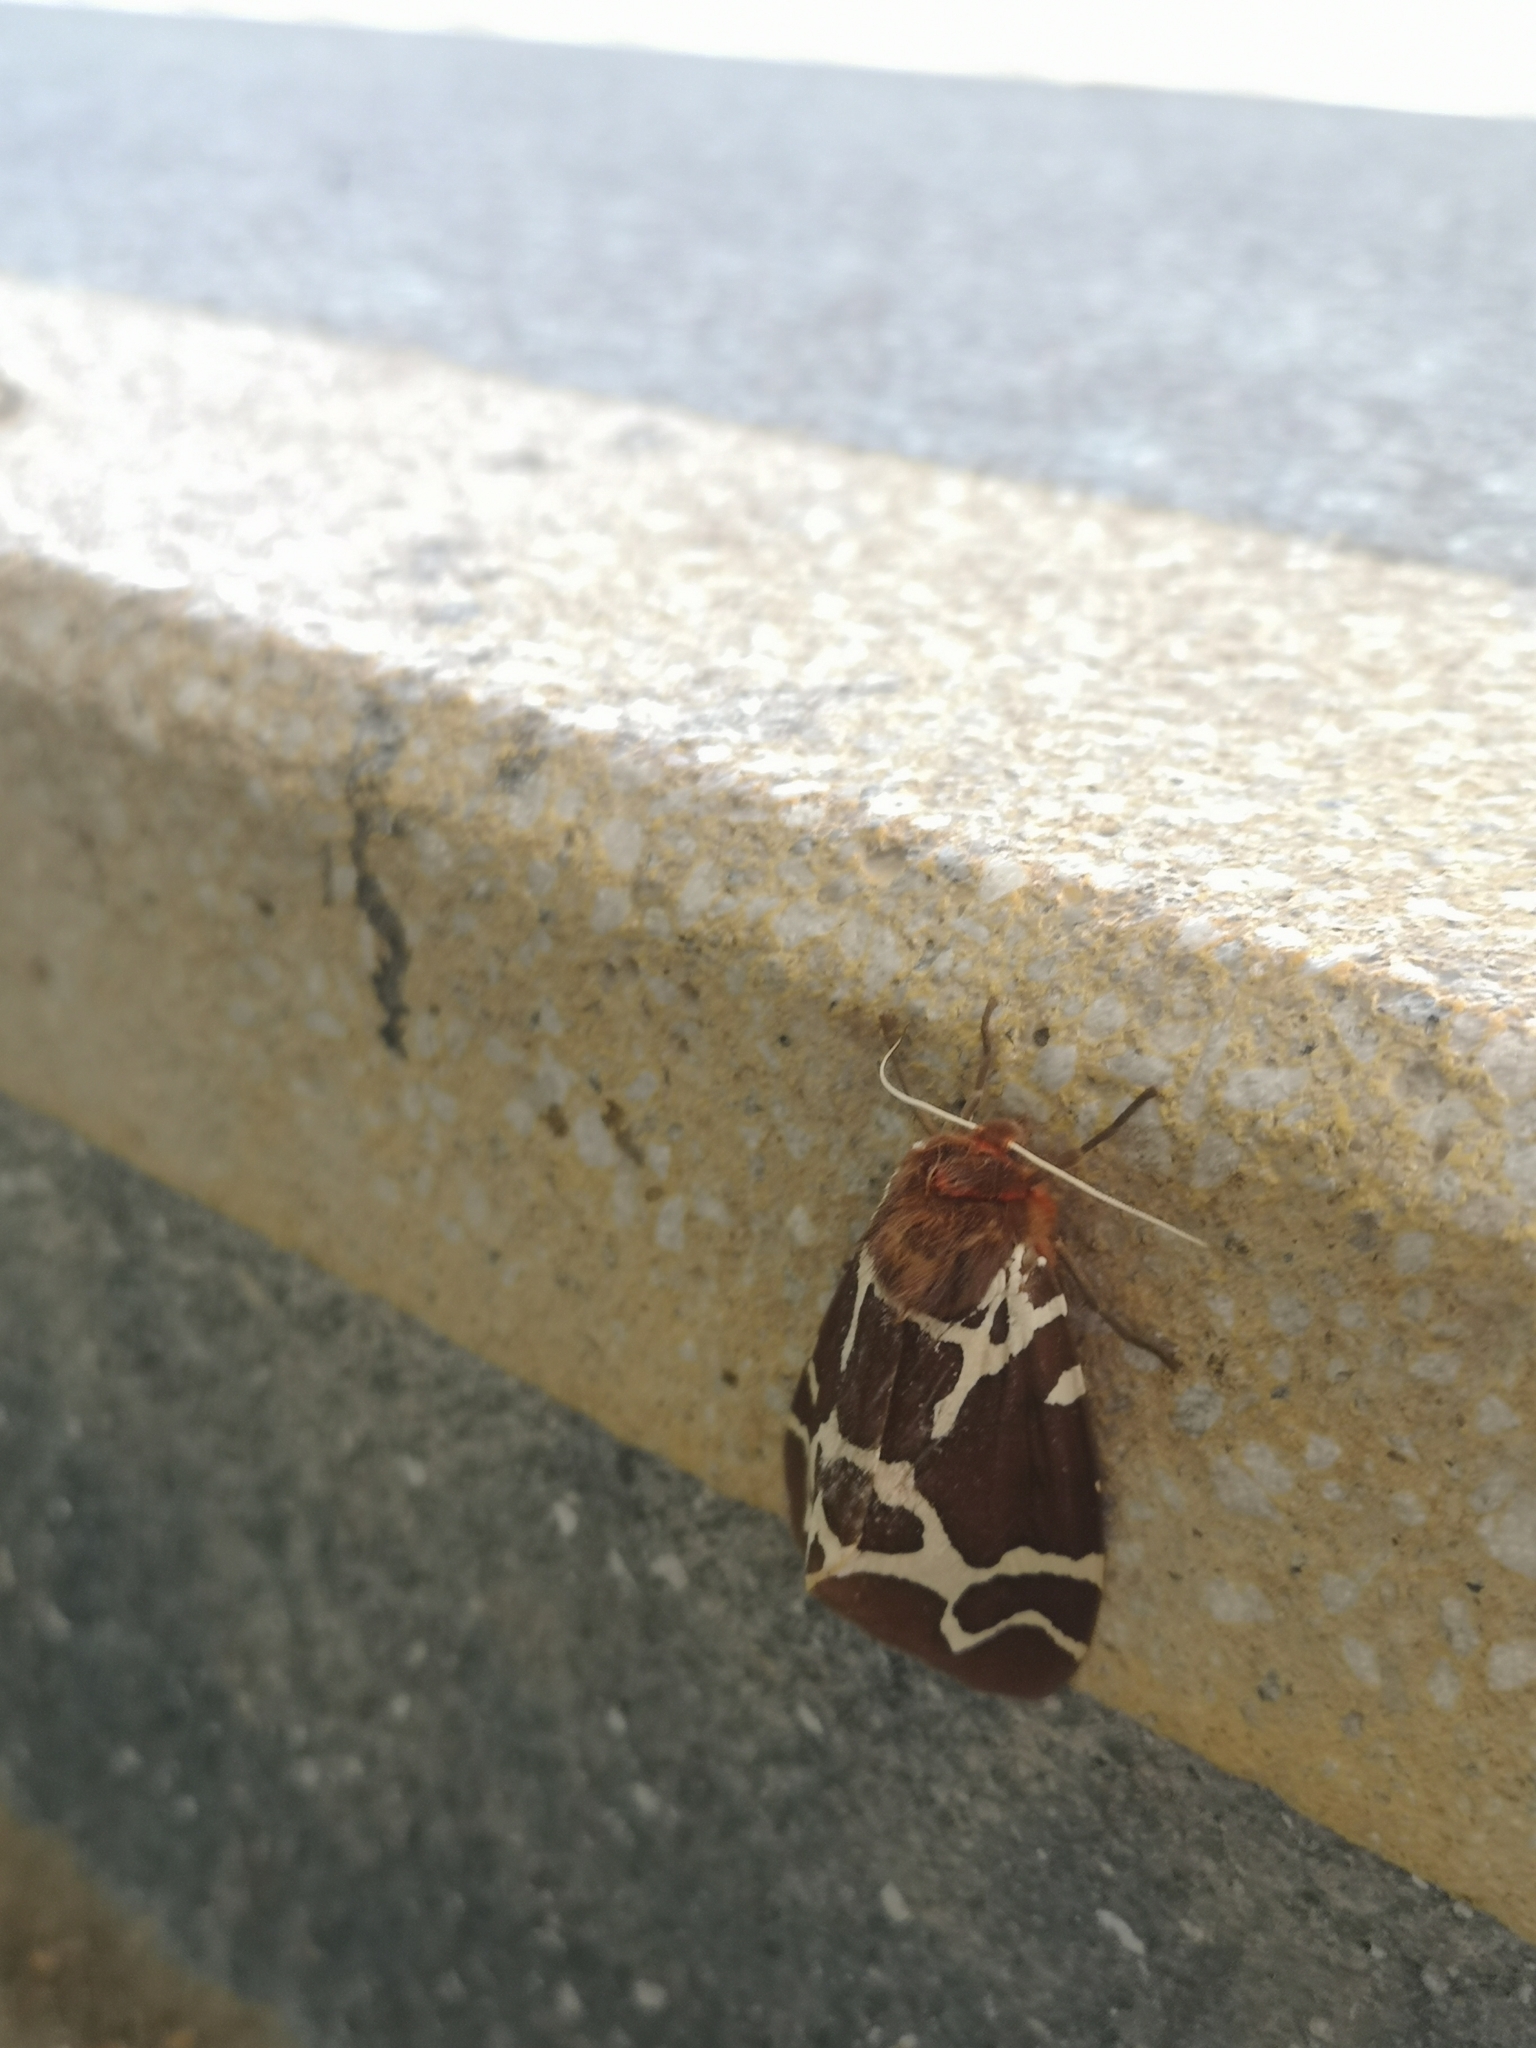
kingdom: Animalia
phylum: Arthropoda
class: Insecta
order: Lepidoptera
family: Erebidae
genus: Arctia
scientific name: Arctia caja
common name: Garden tiger
